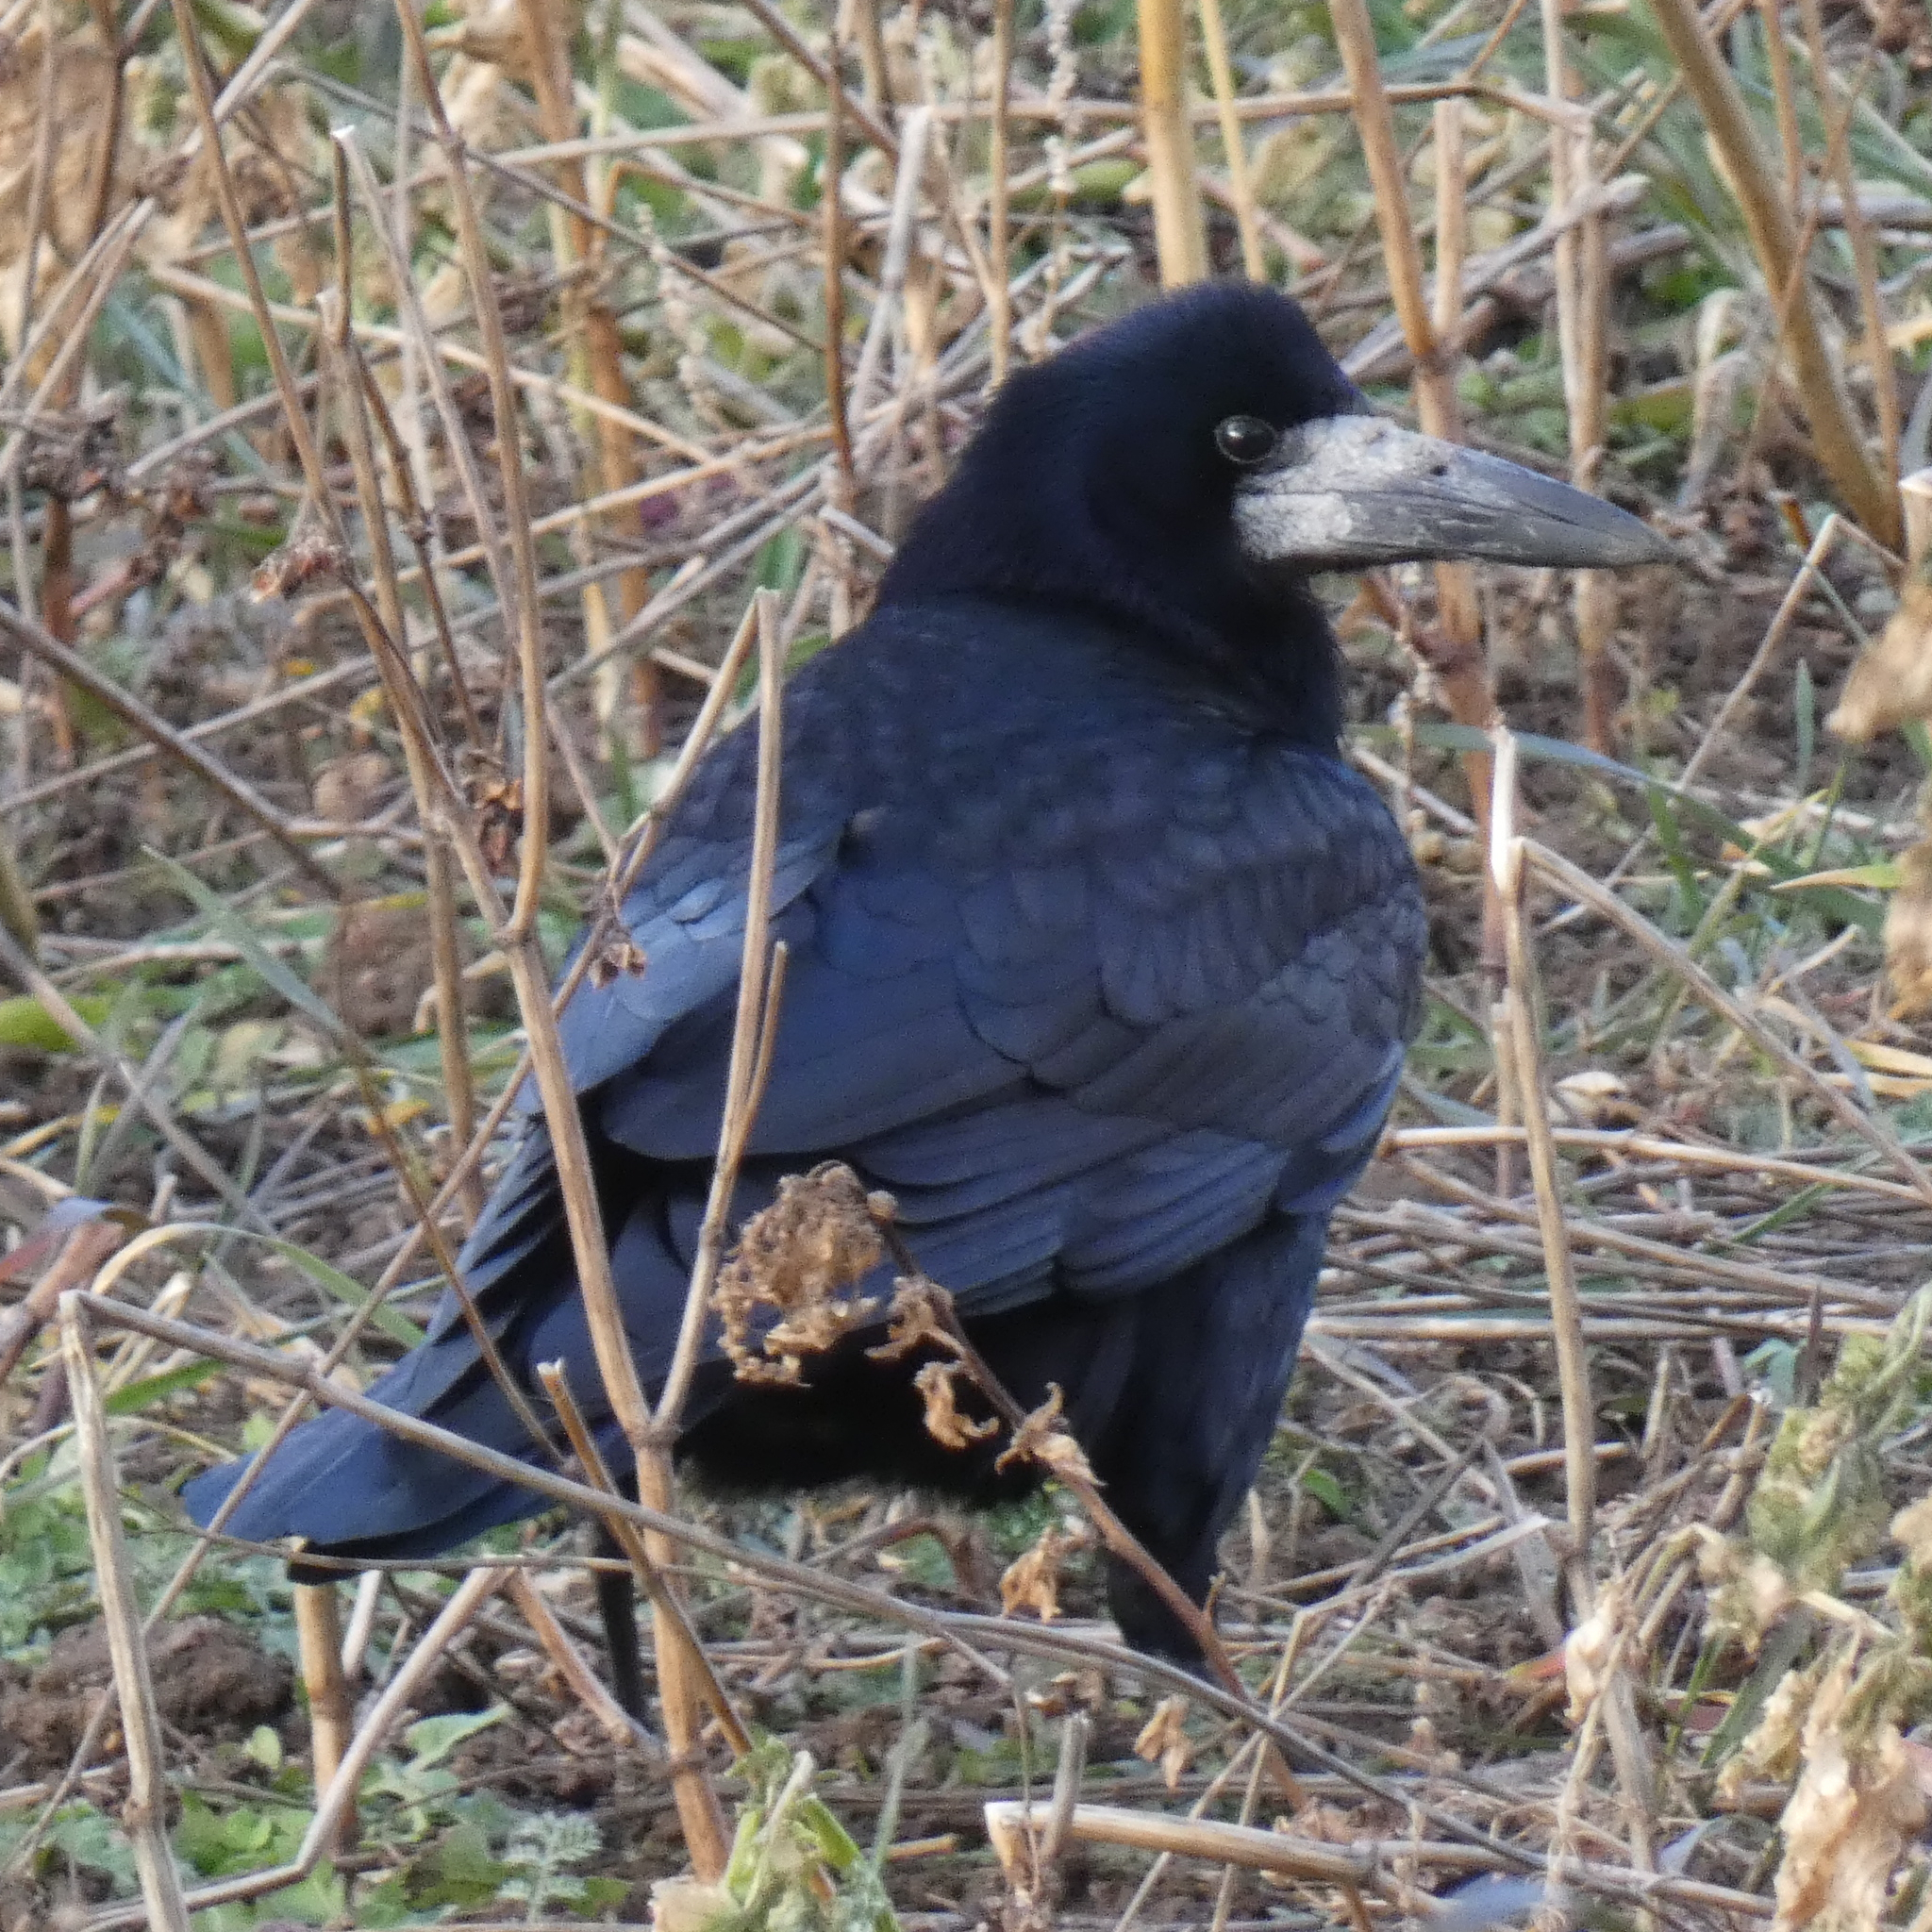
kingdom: Animalia
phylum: Chordata
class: Aves
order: Passeriformes
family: Corvidae
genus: Corvus
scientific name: Corvus frugilegus
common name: Rook
